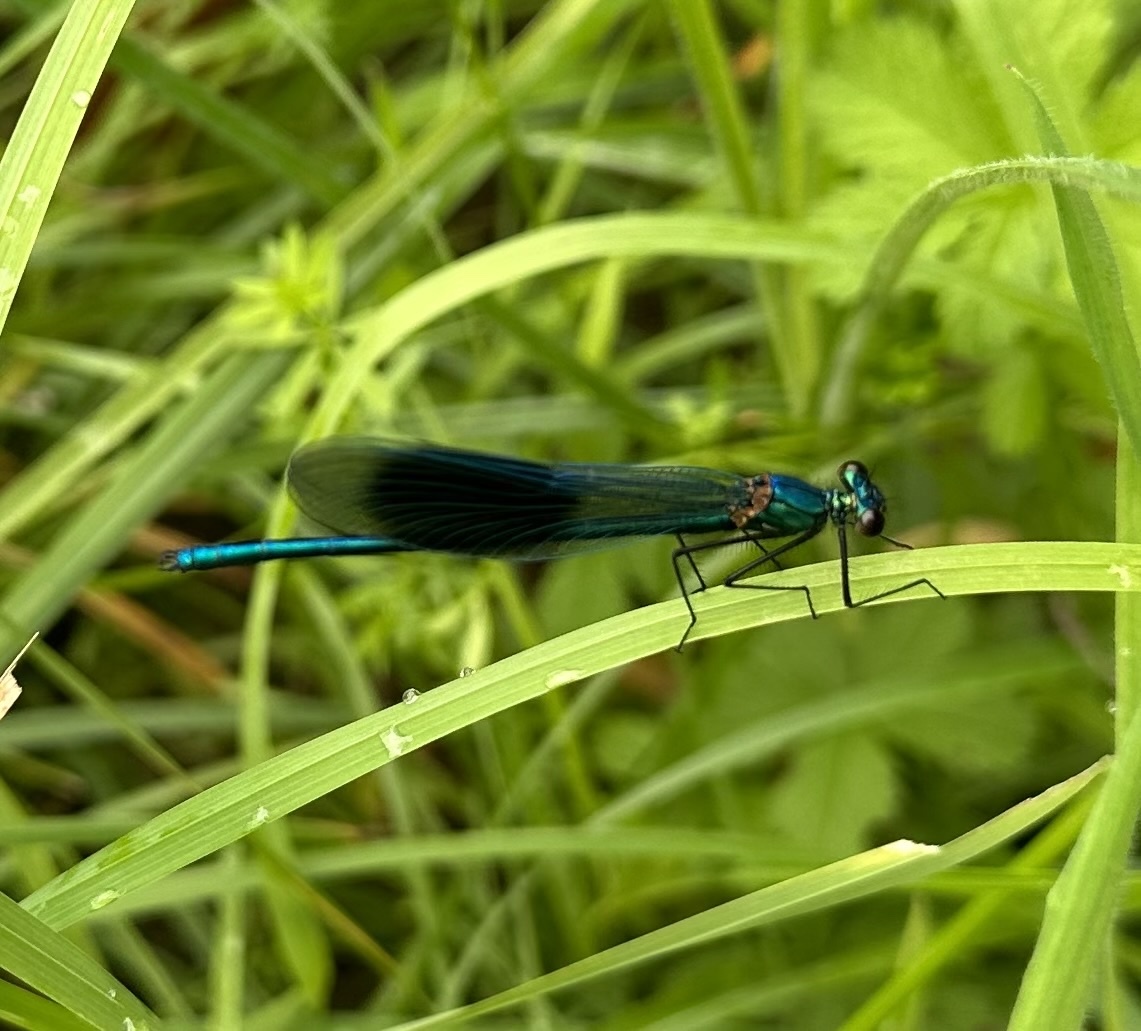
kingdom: Animalia
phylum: Arthropoda
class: Insecta
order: Odonata
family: Calopterygidae
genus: Calopteryx
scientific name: Calopteryx splendens
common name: Banded demoiselle
